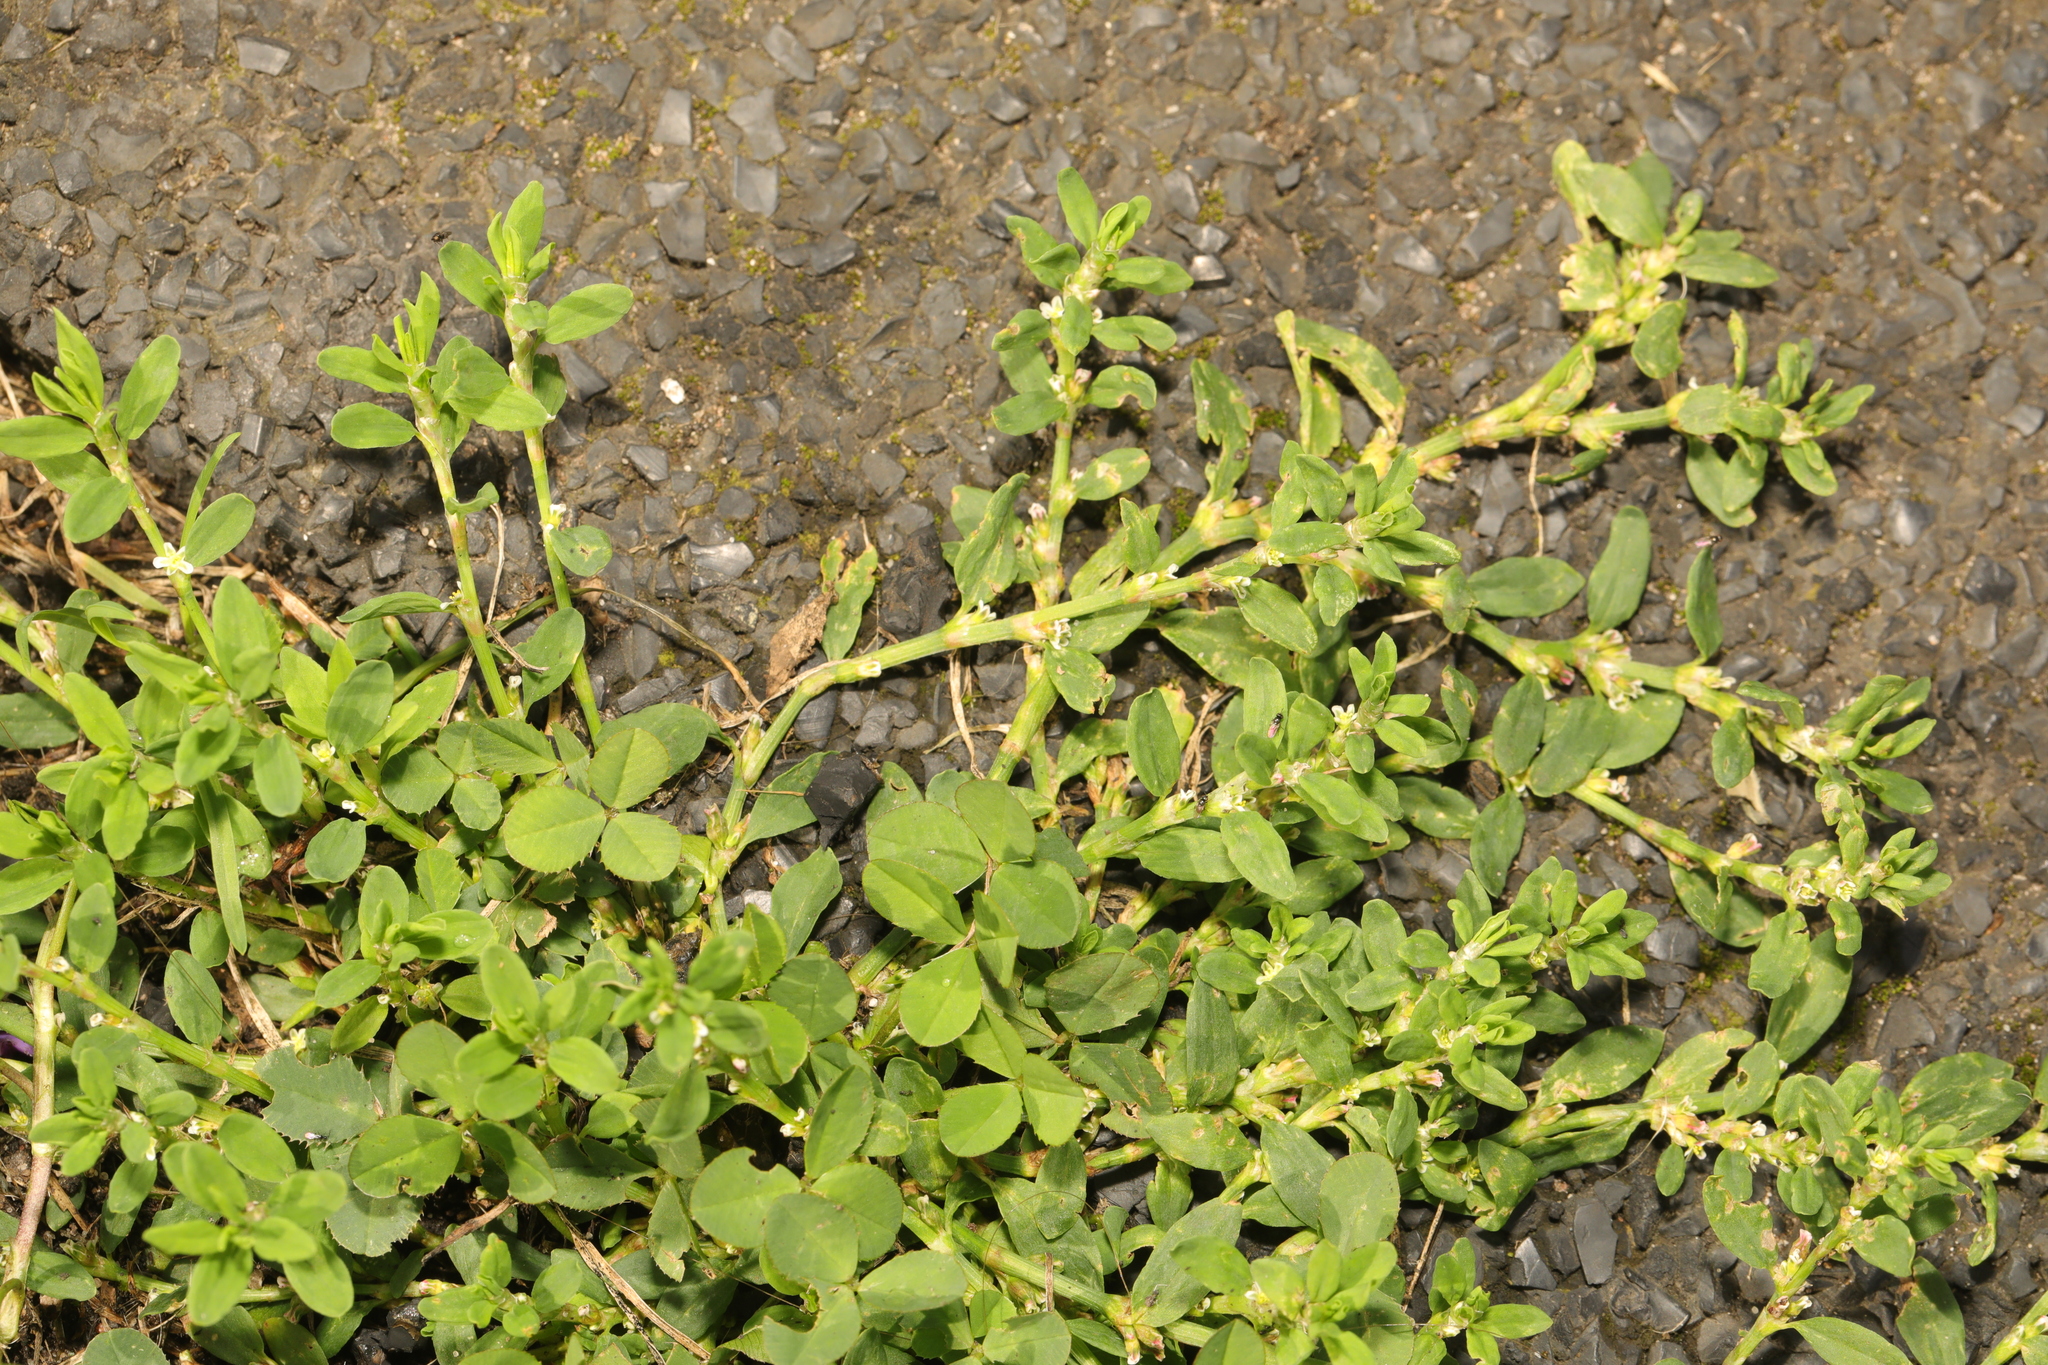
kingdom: Plantae
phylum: Tracheophyta
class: Magnoliopsida
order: Caryophyllales
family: Polygonaceae
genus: Polygonum
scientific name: Polygonum aviculare
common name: Prostrate knotweed
